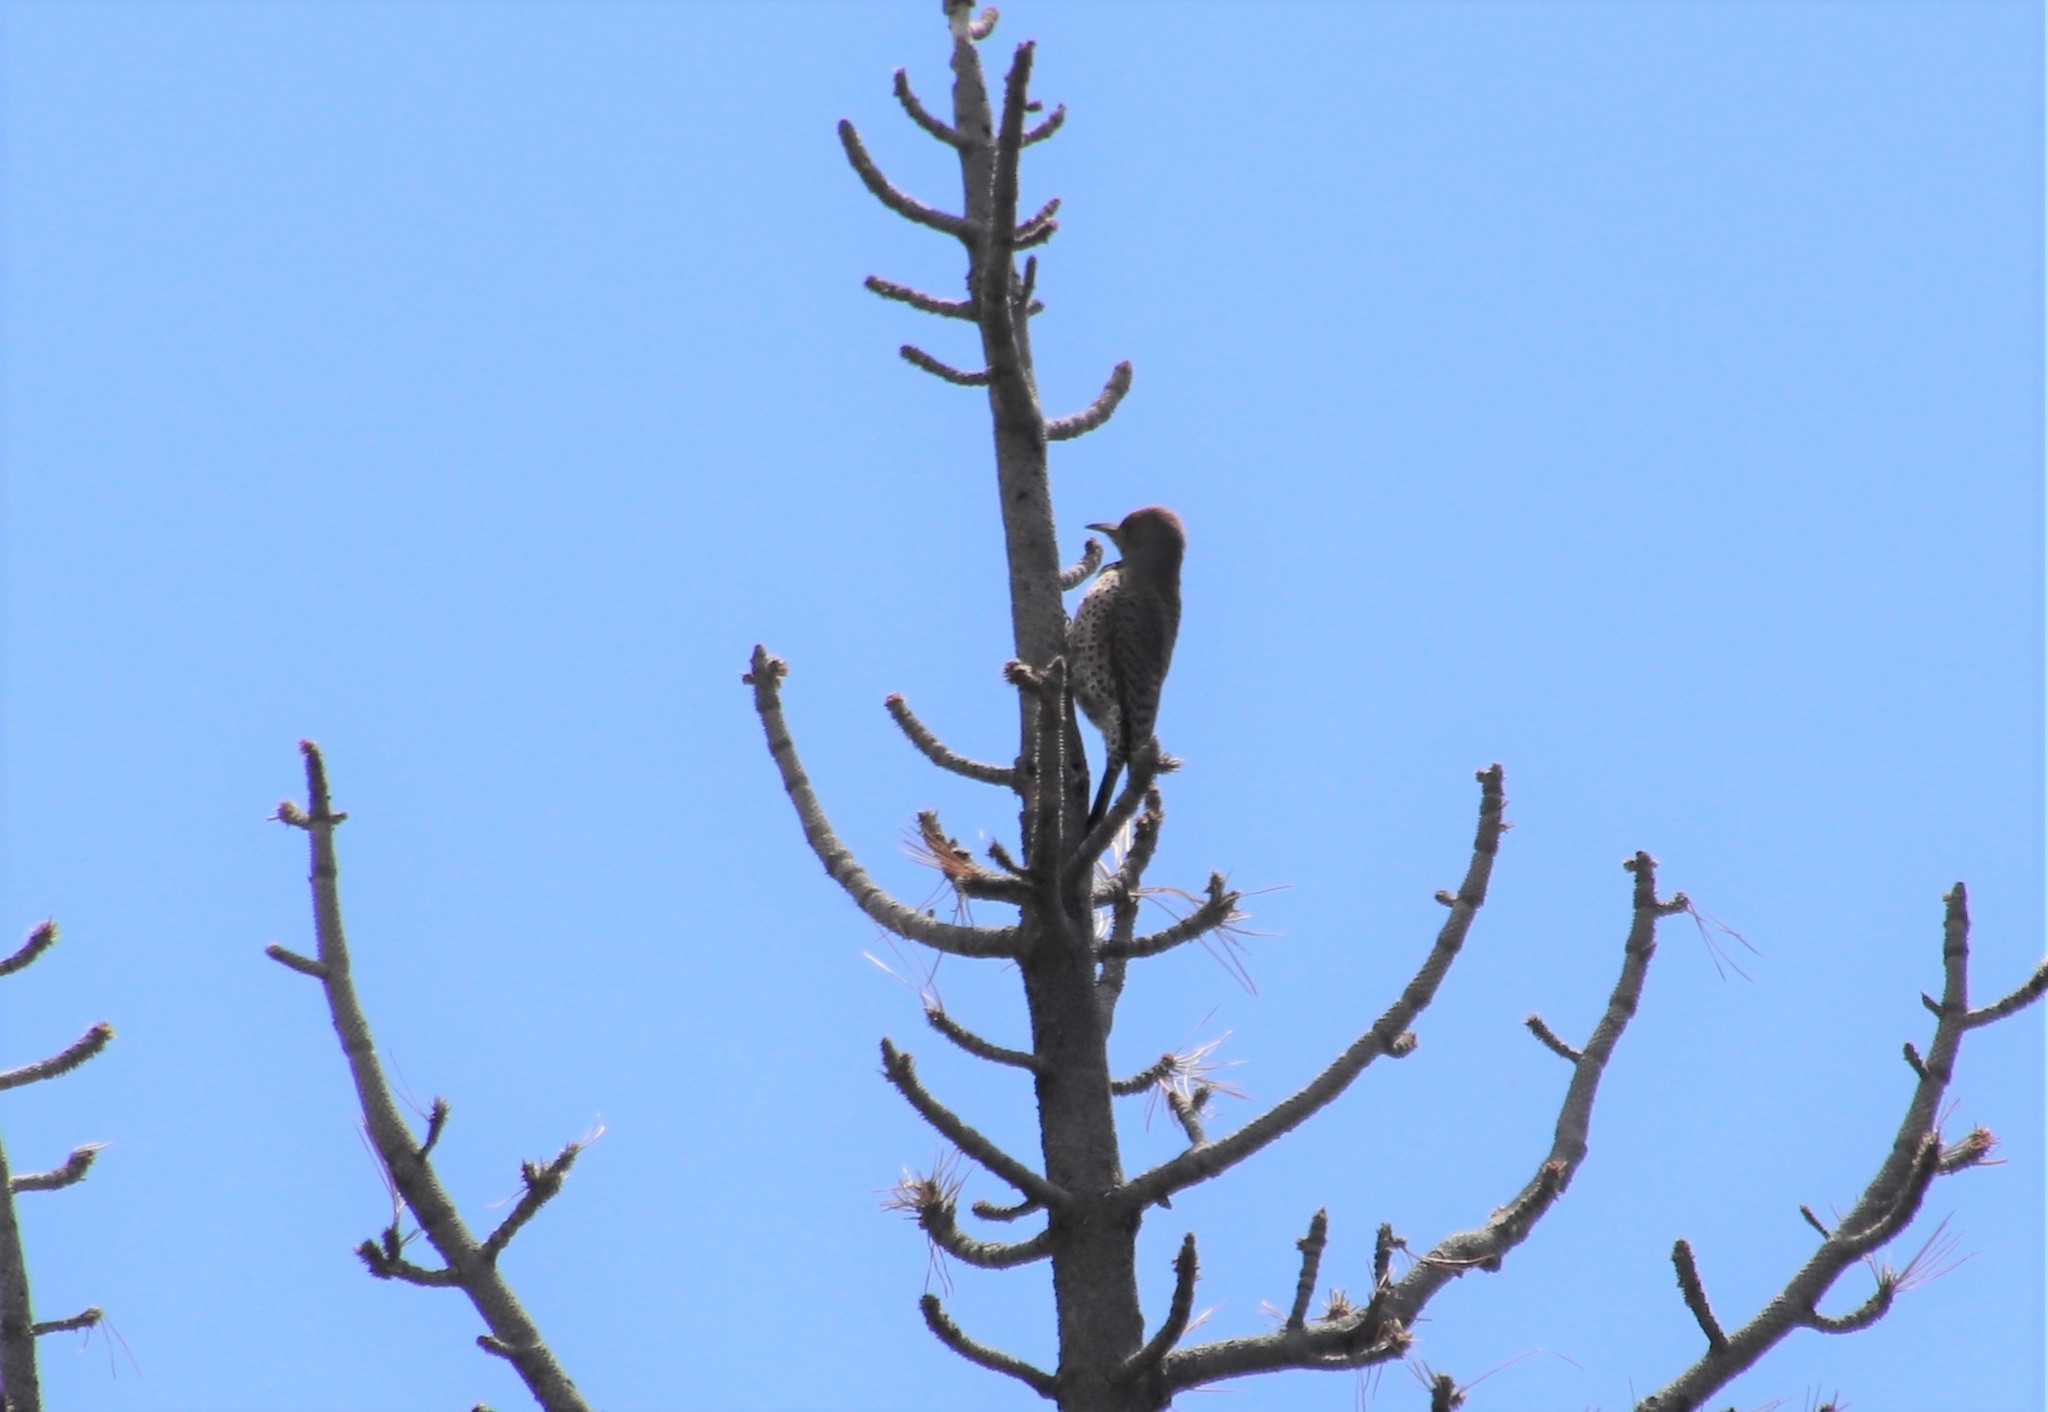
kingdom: Animalia
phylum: Chordata
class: Aves
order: Piciformes
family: Picidae
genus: Colaptes
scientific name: Colaptes auratus
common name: Northern flicker
